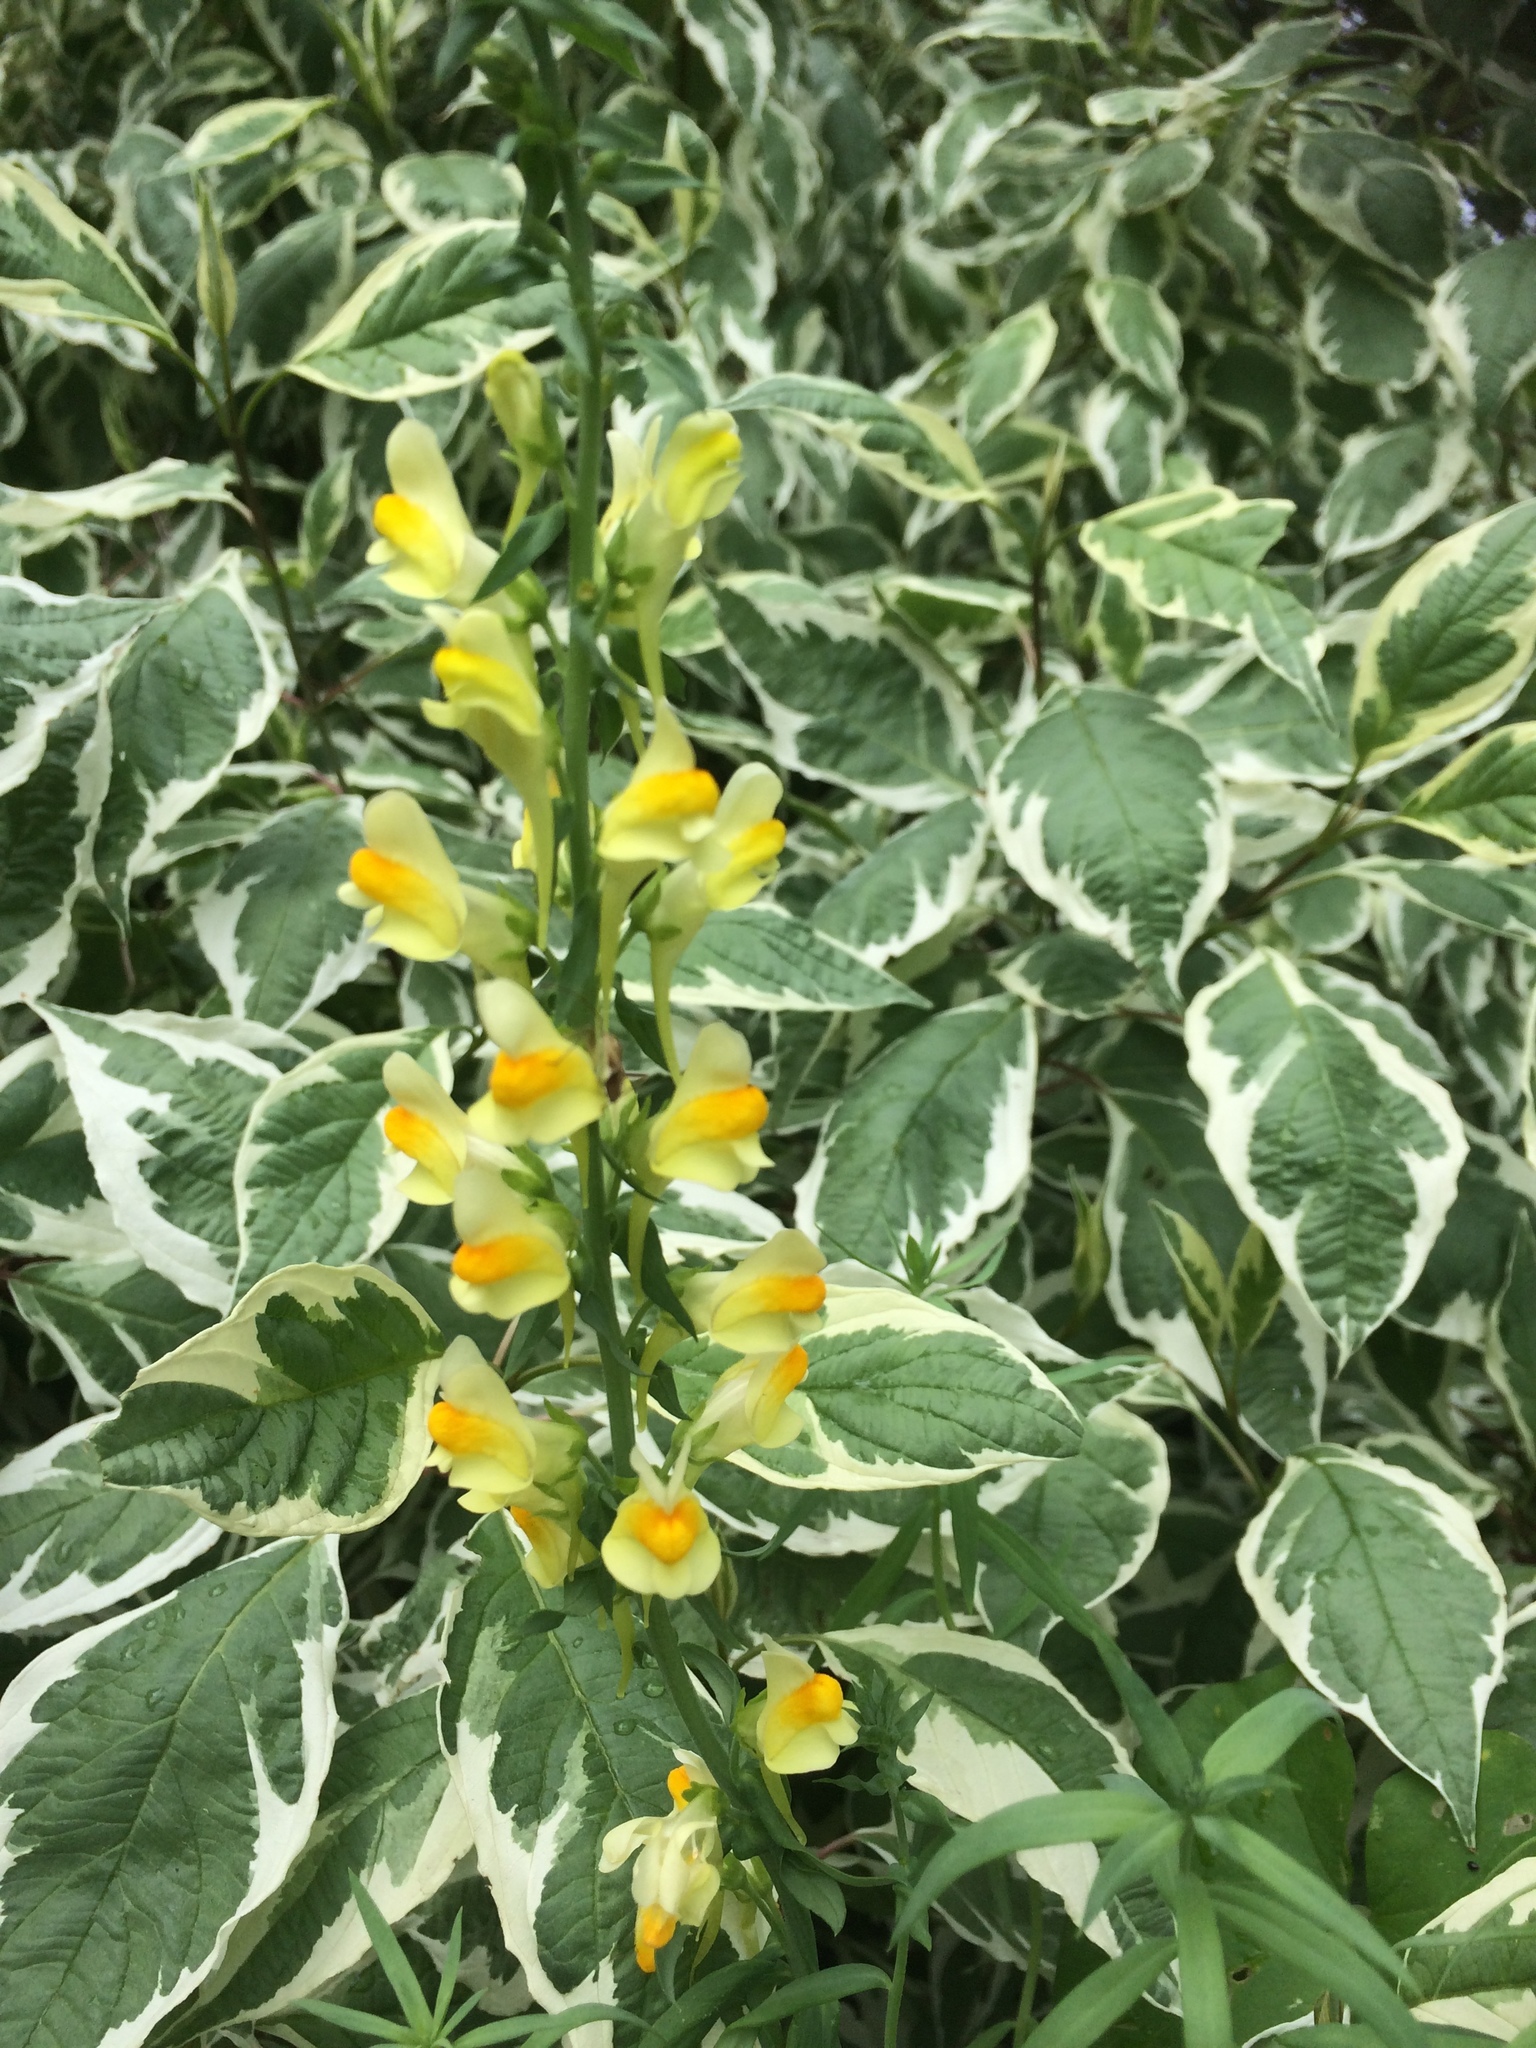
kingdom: Plantae
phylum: Tracheophyta
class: Magnoliopsida
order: Lamiales
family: Plantaginaceae
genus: Linaria
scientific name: Linaria vulgaris
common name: Butter and eggs
